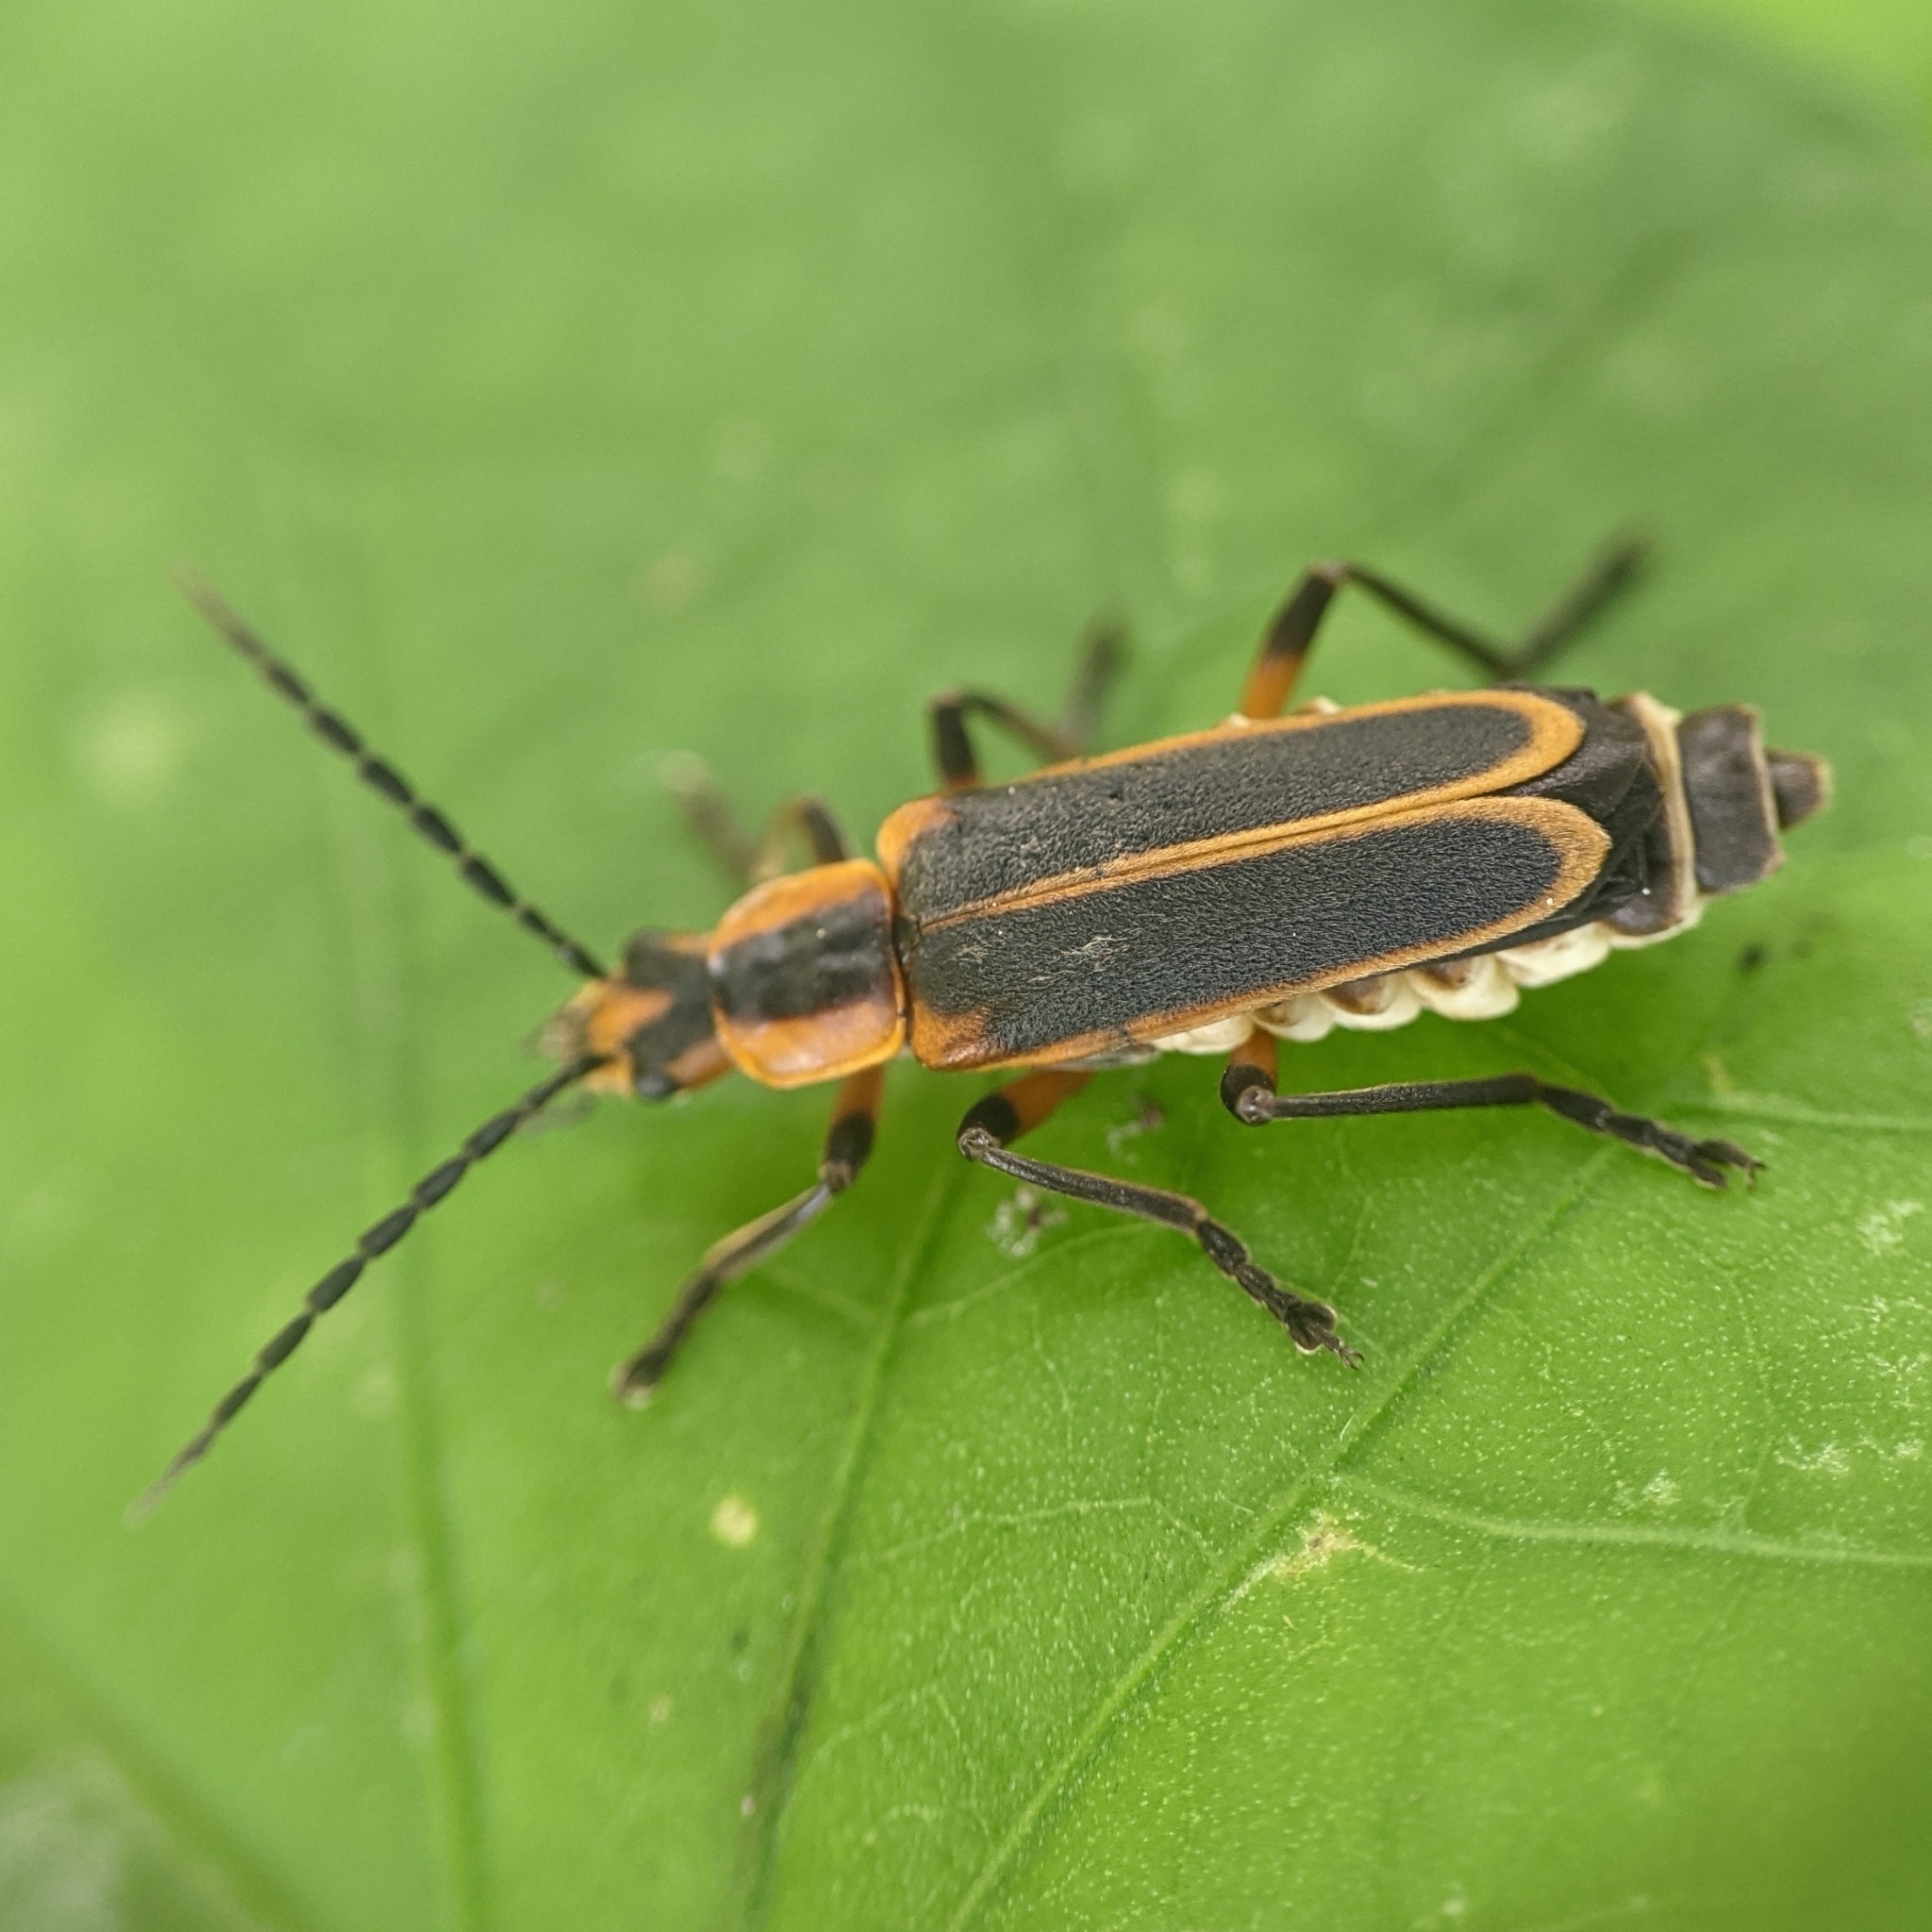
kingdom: Animalia
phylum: Arthropoda
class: Insecta
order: Coleoptera
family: Cantharidae
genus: Chauliognathus
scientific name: Chauliognathus marginatus
